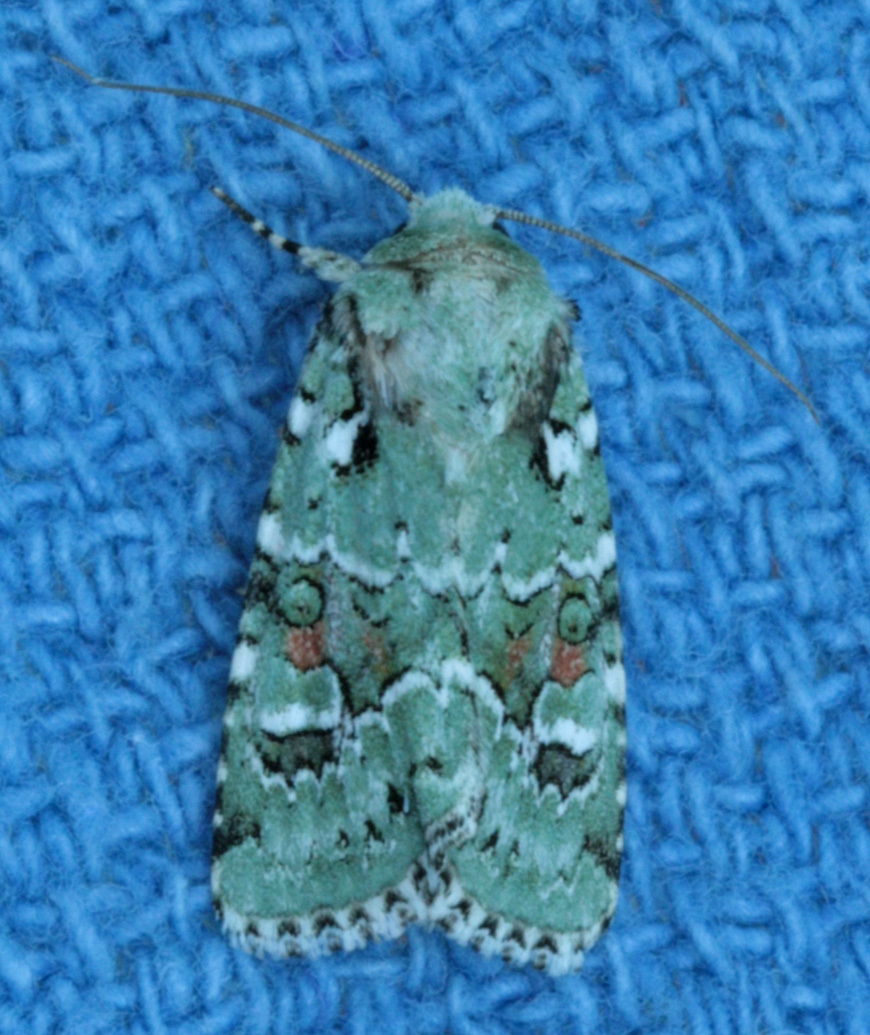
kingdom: Animalia
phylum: Arthropoda
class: Insecta
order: Lepidoptera
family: Noctuidae
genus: Lacinipolia
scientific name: Lacinipolia laudabilis
